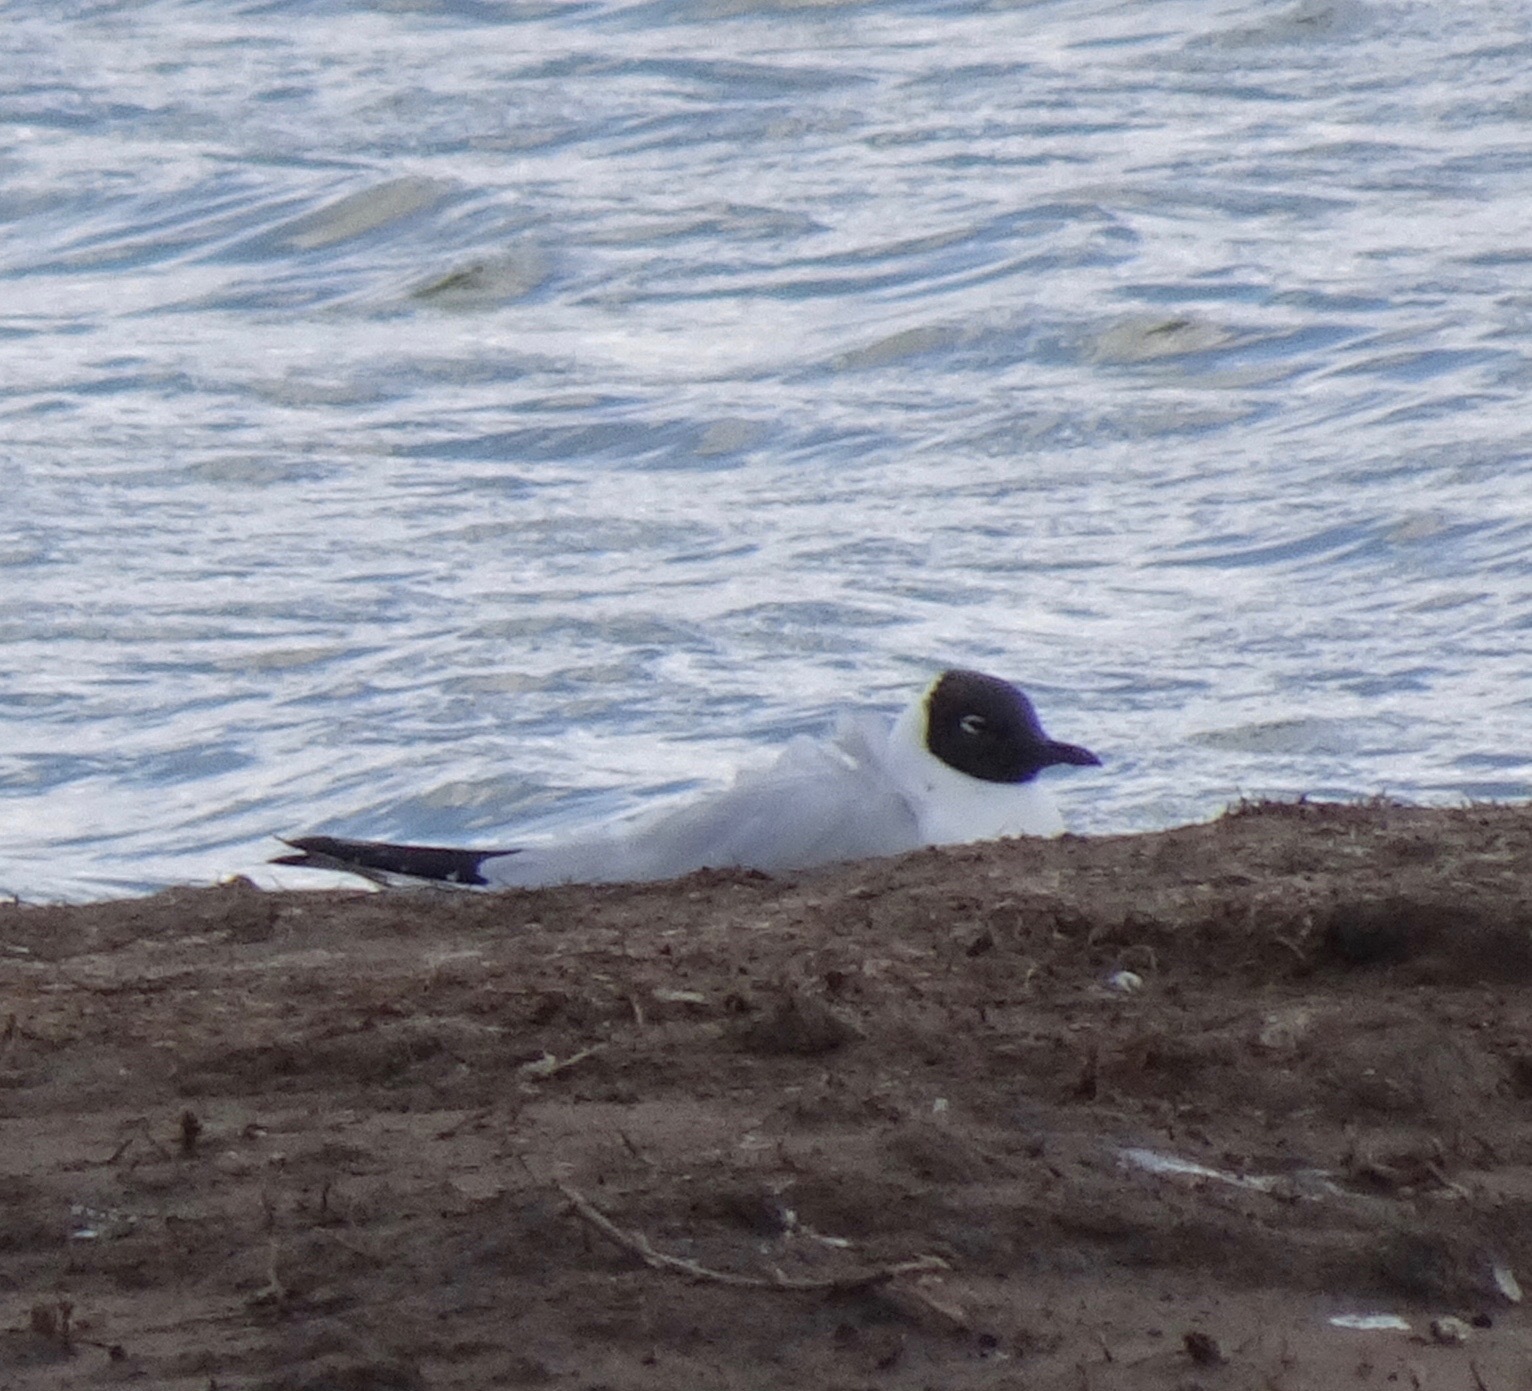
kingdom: Animalia
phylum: Chordata
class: Aves
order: Charadriiformes
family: Laridae
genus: Chroicocephalus
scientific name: Chroicocephalus ridibundus
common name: Black-headed gull
